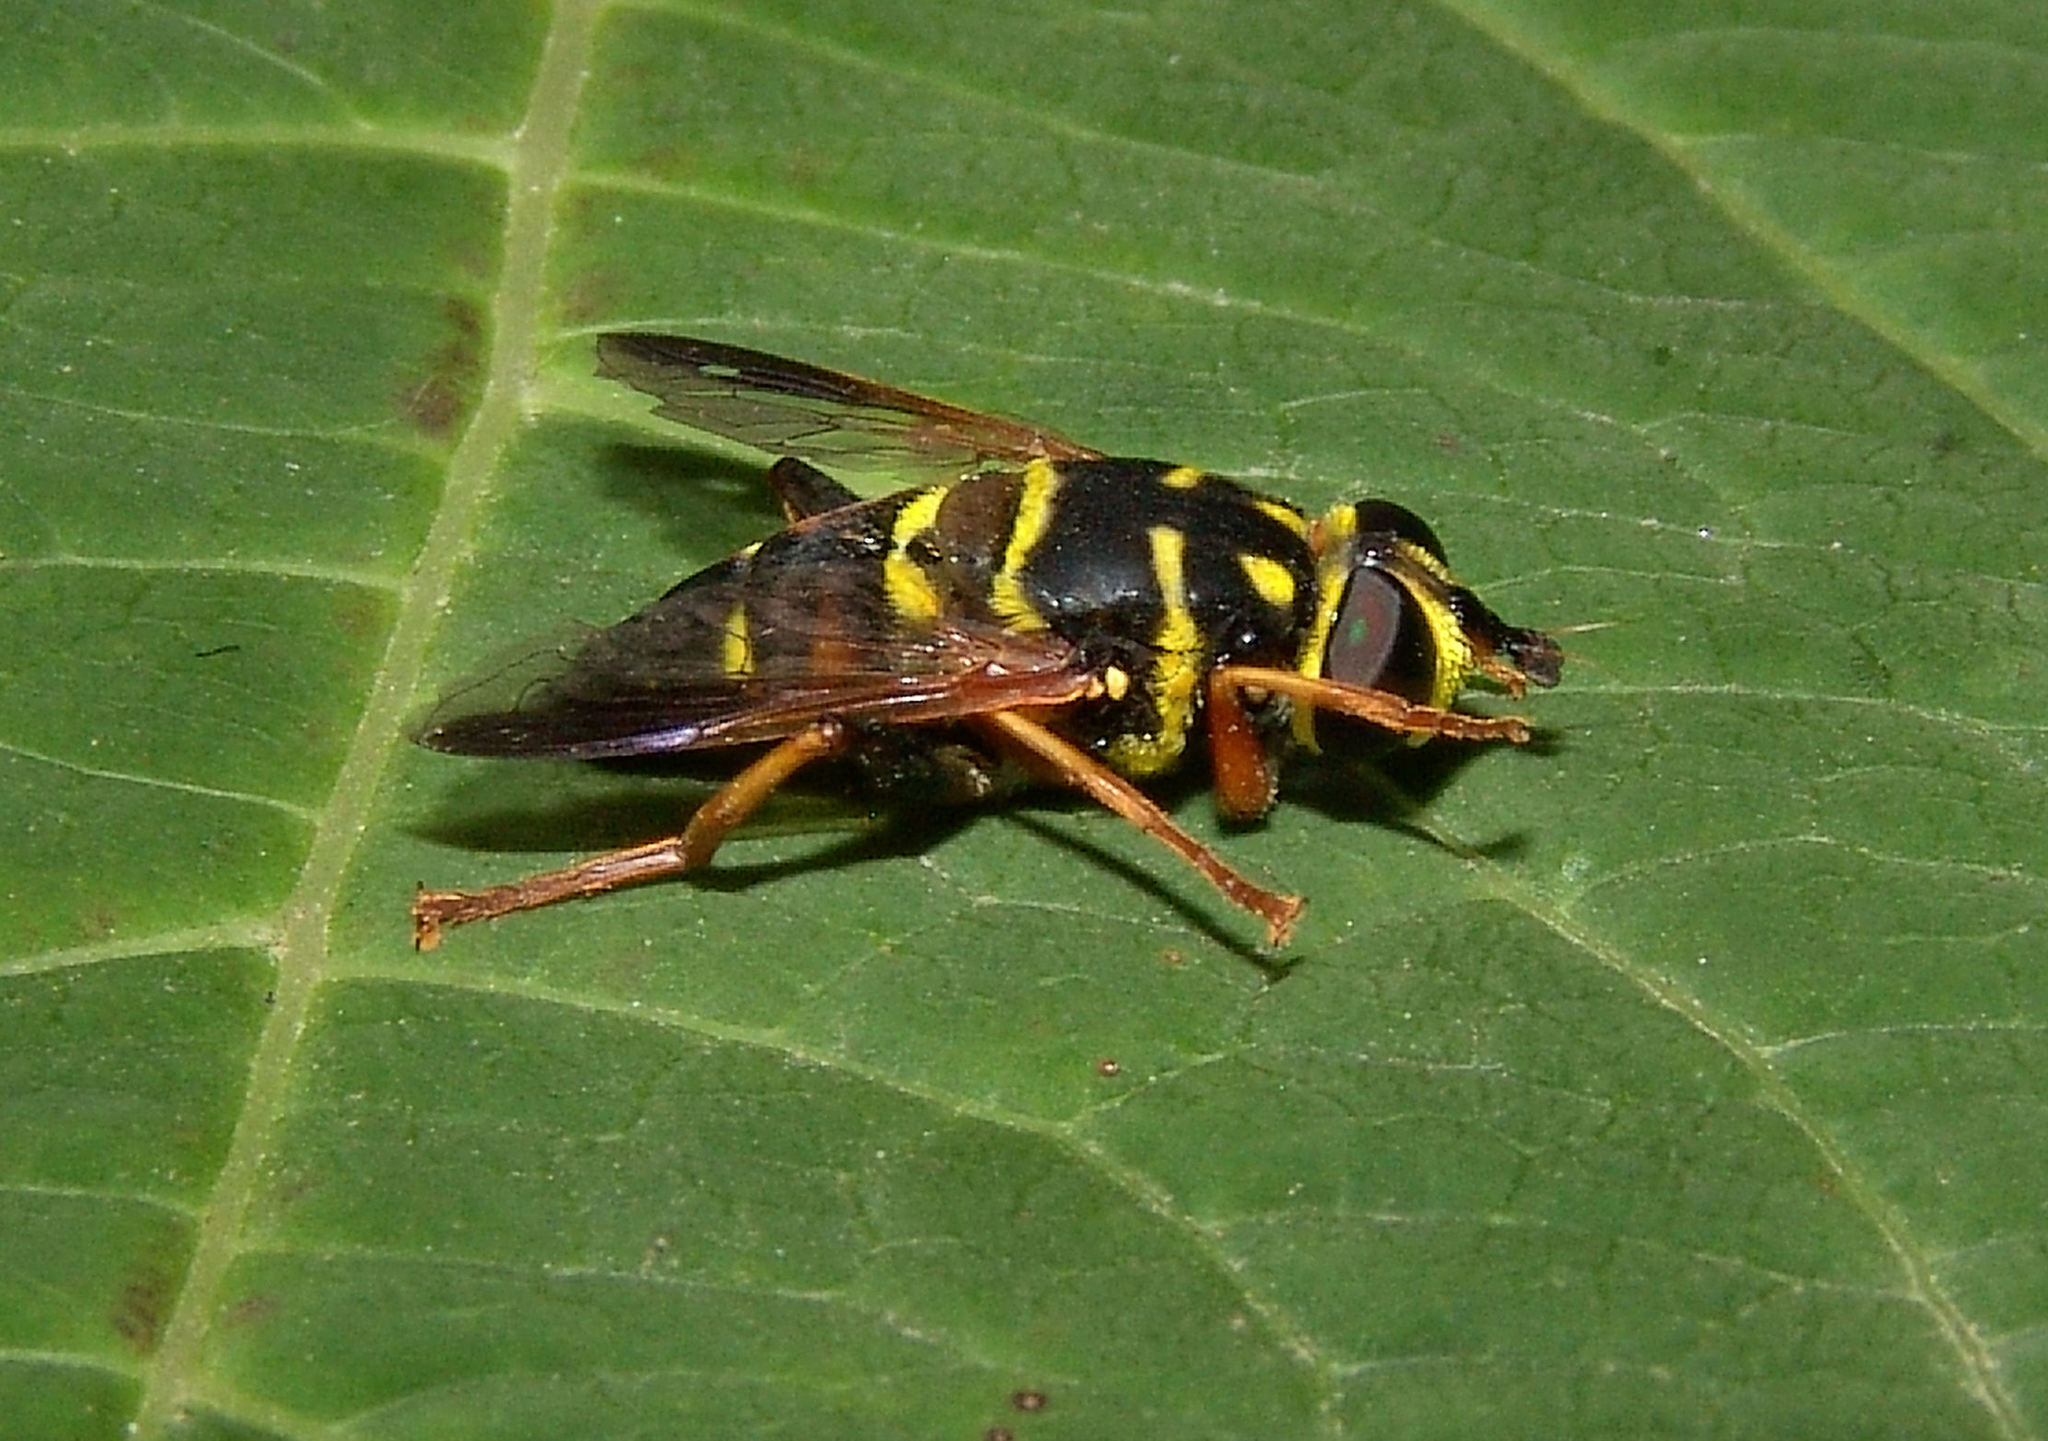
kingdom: Animalia
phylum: Arthropoda
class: Insecta
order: Diptera
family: Syrphidae
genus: Meromacrus
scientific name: Meromacrus acutus
